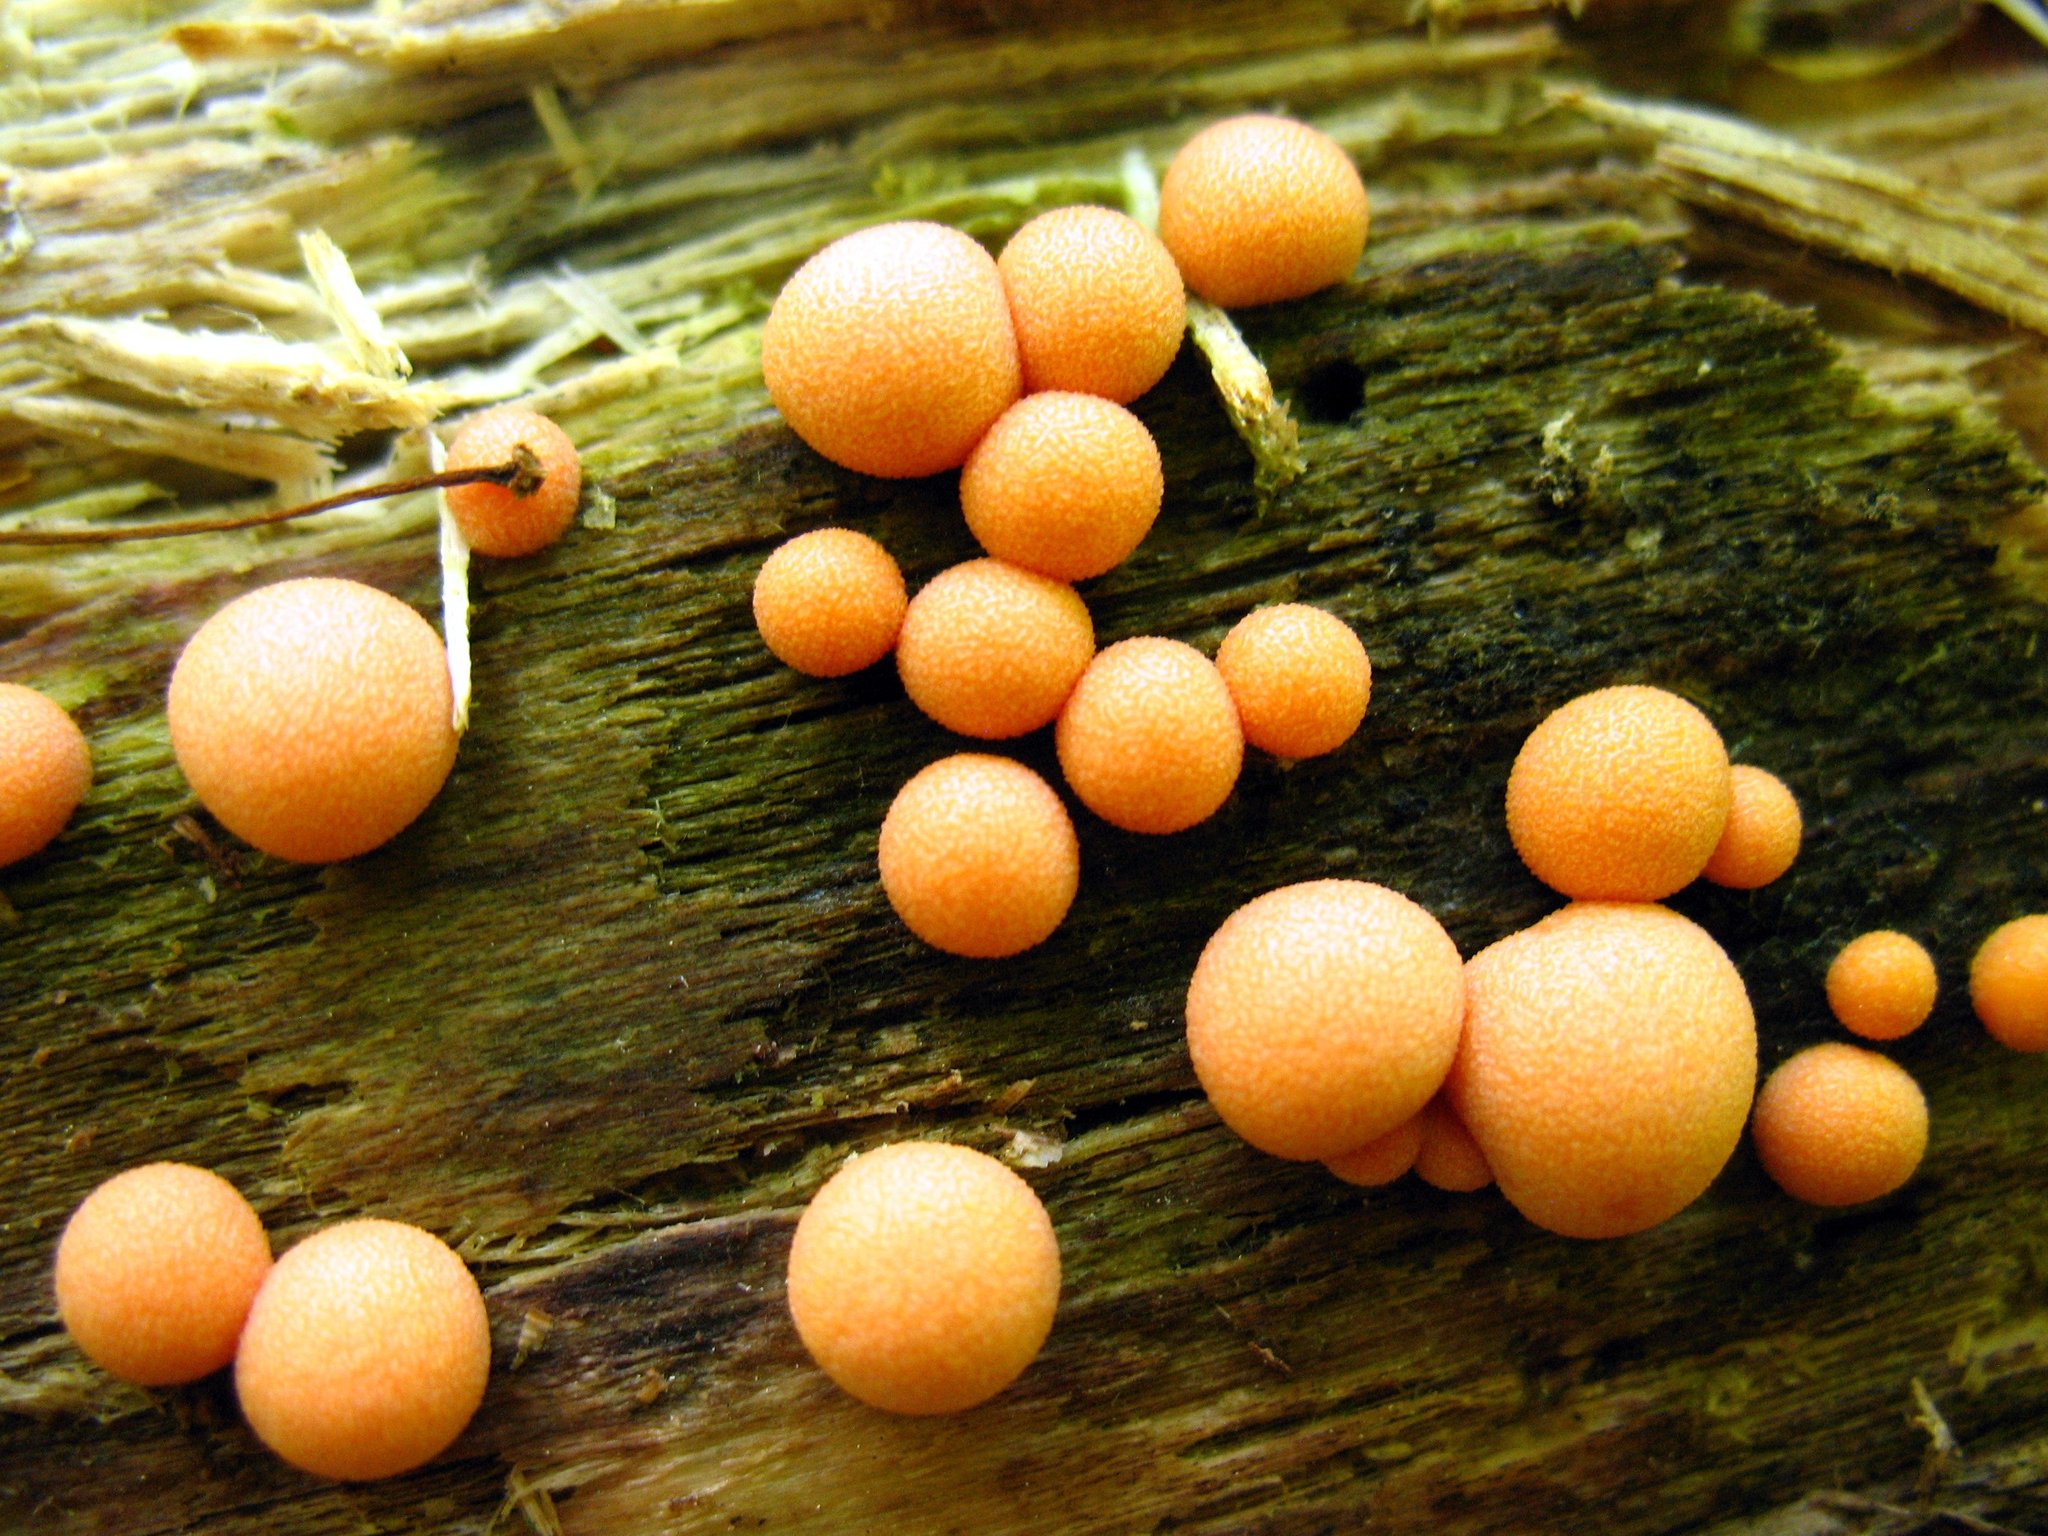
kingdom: Protozoa
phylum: Mycetozoa
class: Myxomycetes
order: Cribrariales
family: Tubiferaceae
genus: Lycogala
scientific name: Lycogala epidendrum
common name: Wolf's milk
